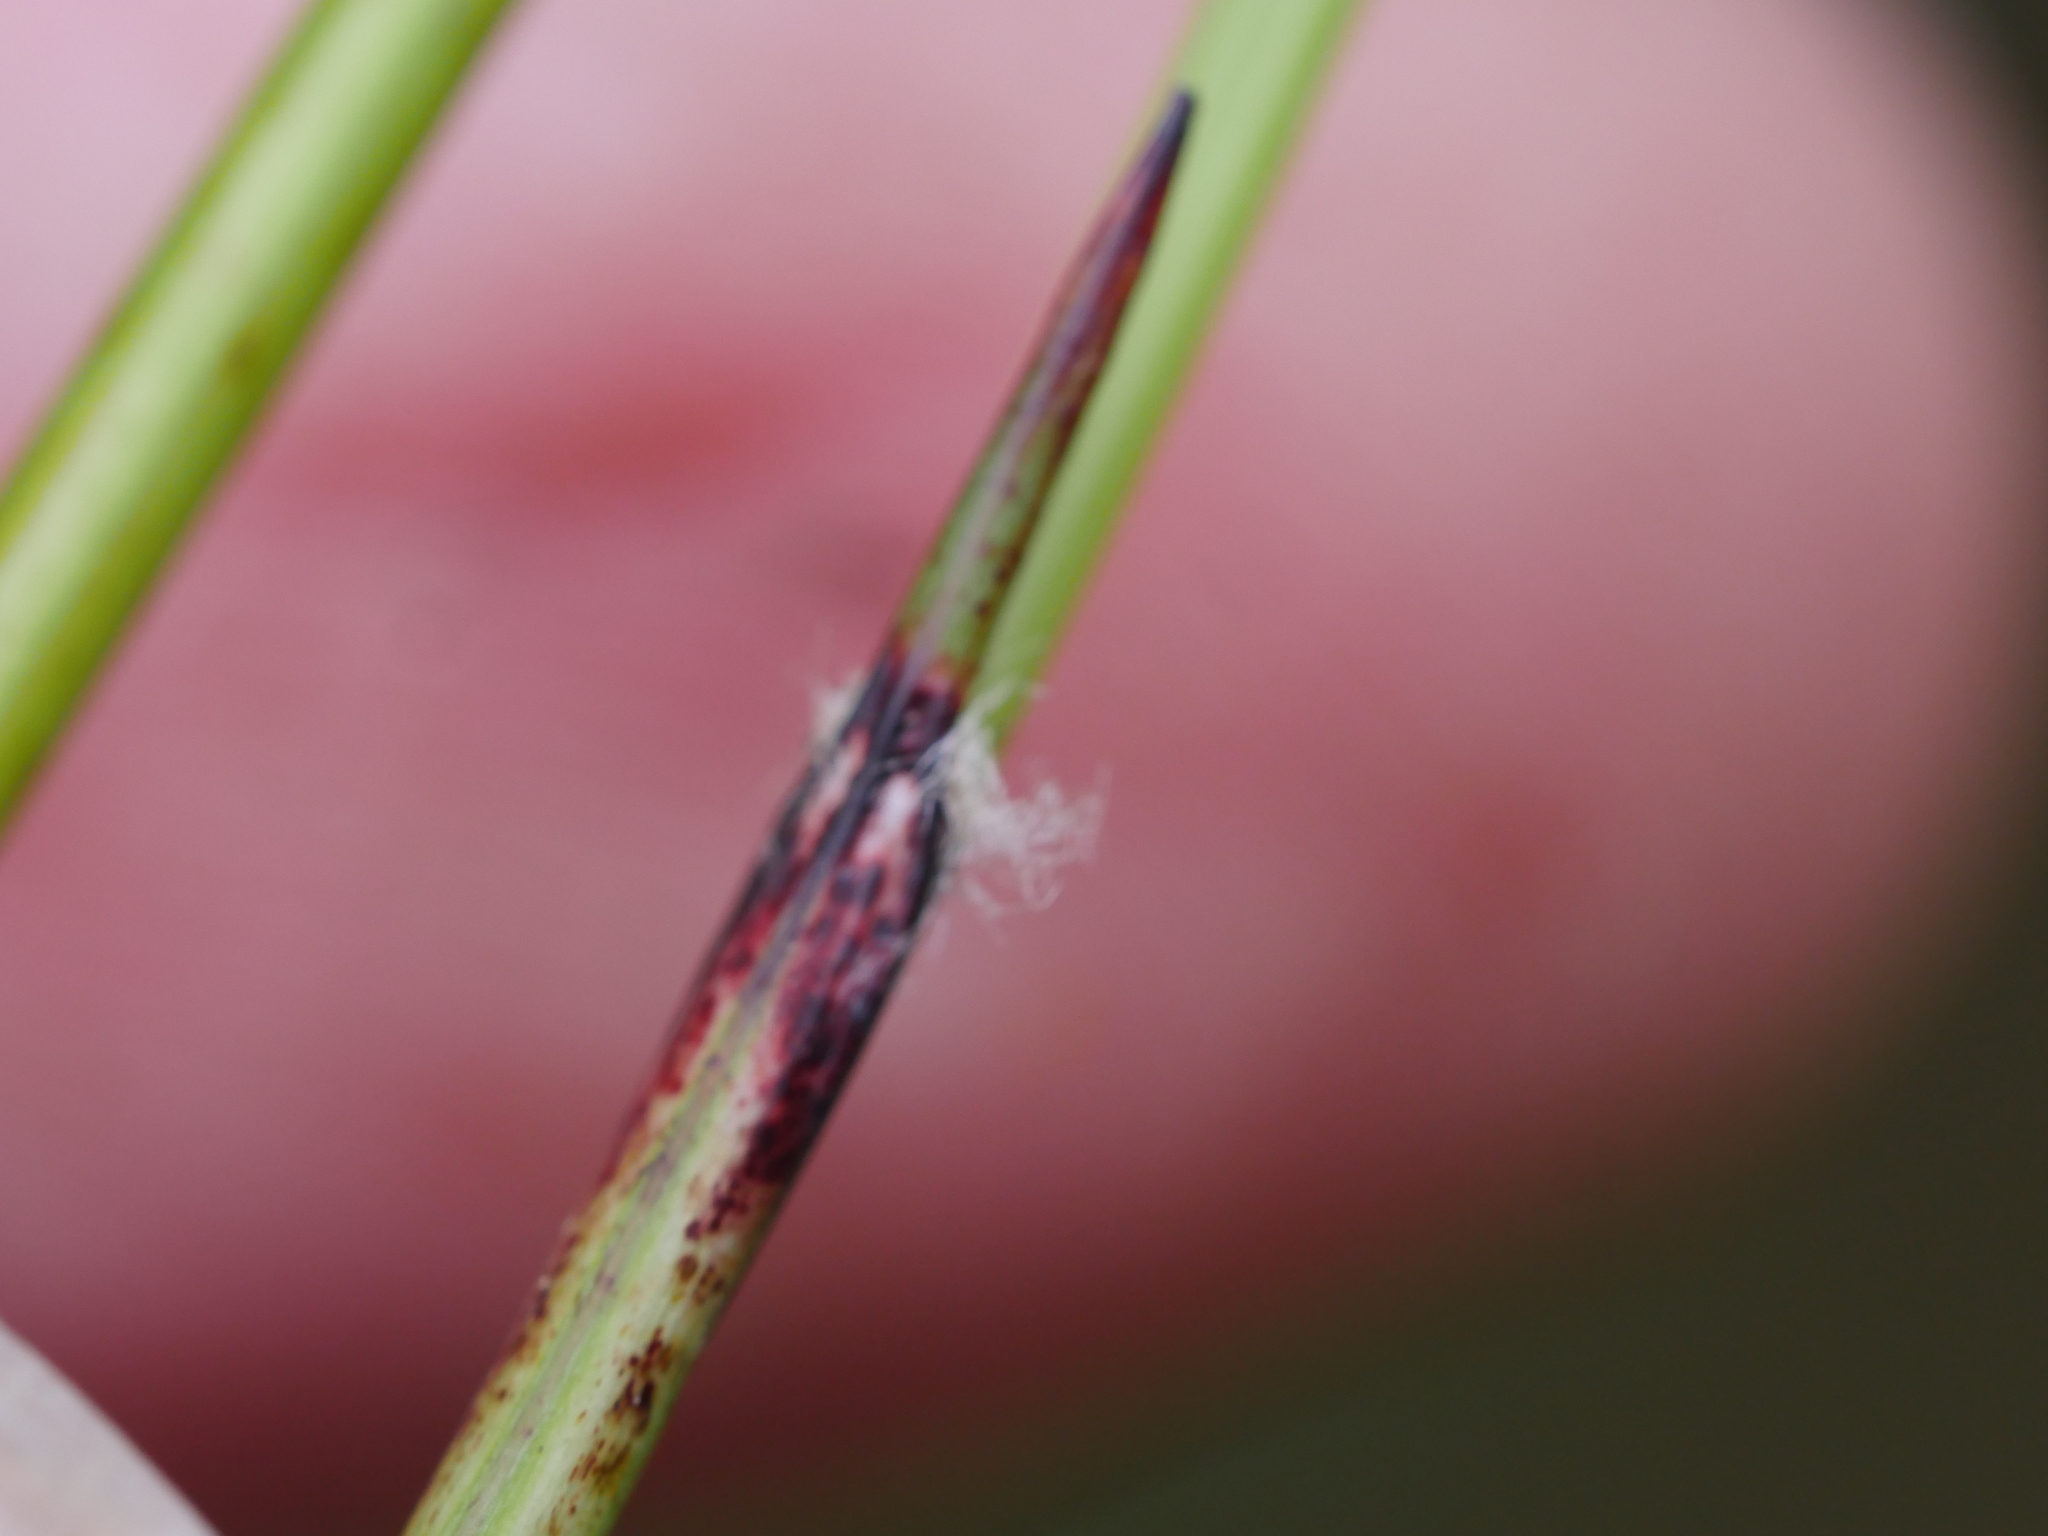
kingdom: Plantae
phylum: Tracheophyta
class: Liliopsida
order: Poales
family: Cyperaceae
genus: Schoenus
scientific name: Schoenus tendo
